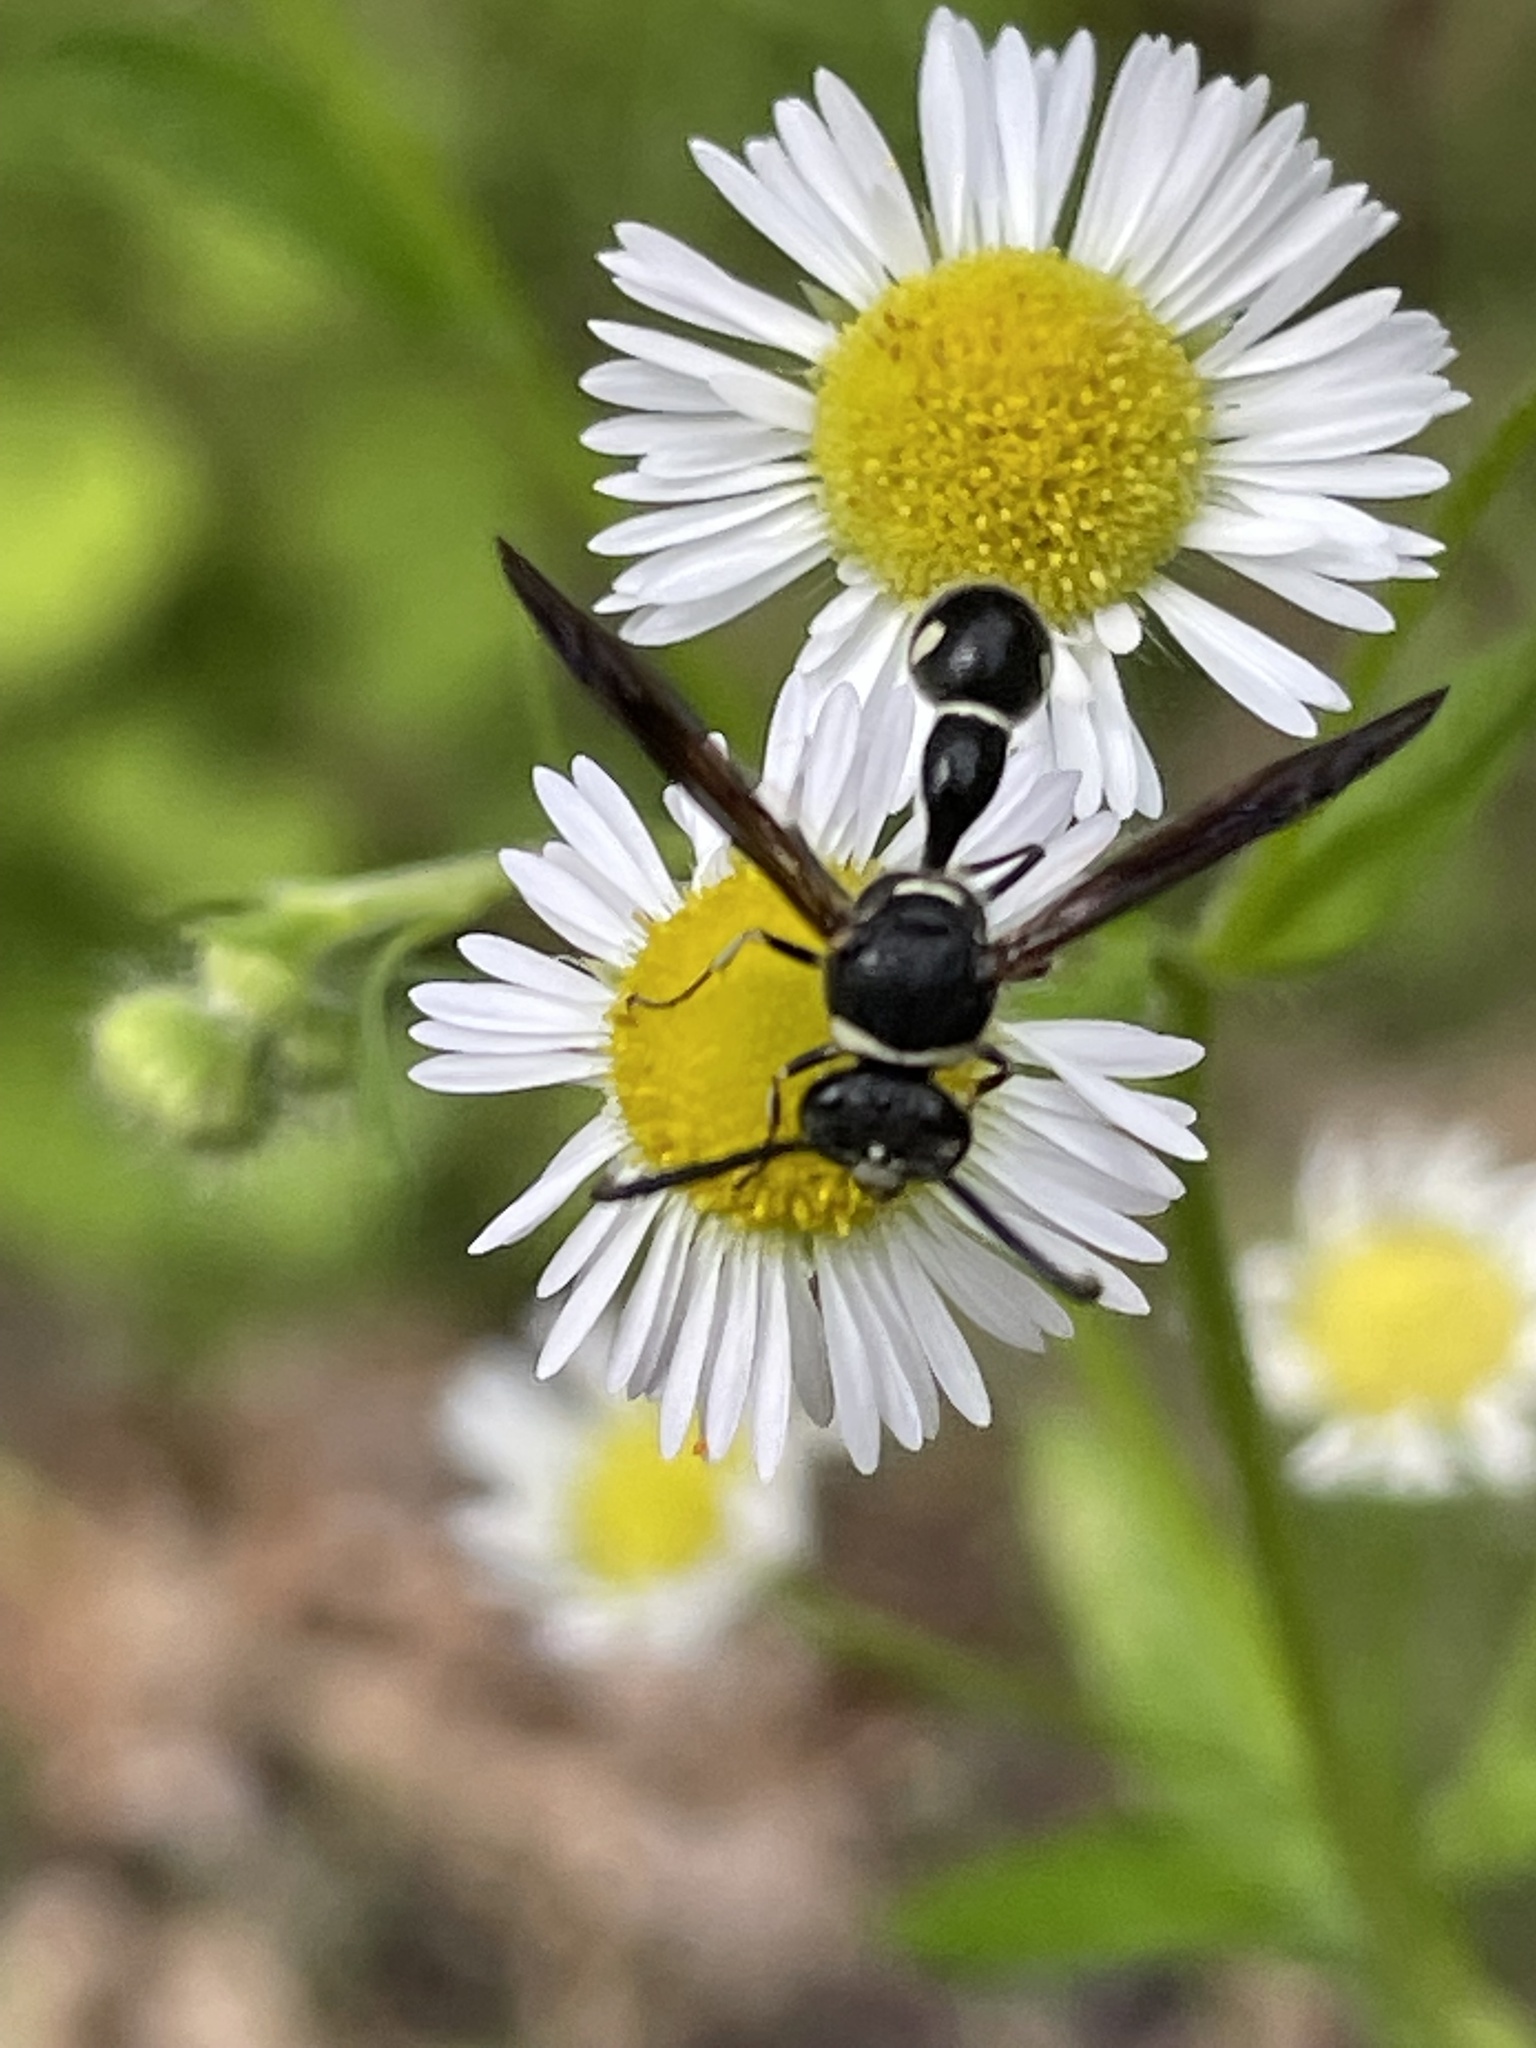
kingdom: Animalia
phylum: Arthropoda
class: Insecta
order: Hymenoptera
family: Vespidae
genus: Eumenes
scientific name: Eumenes fraternus
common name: Fraternal potter wasp
